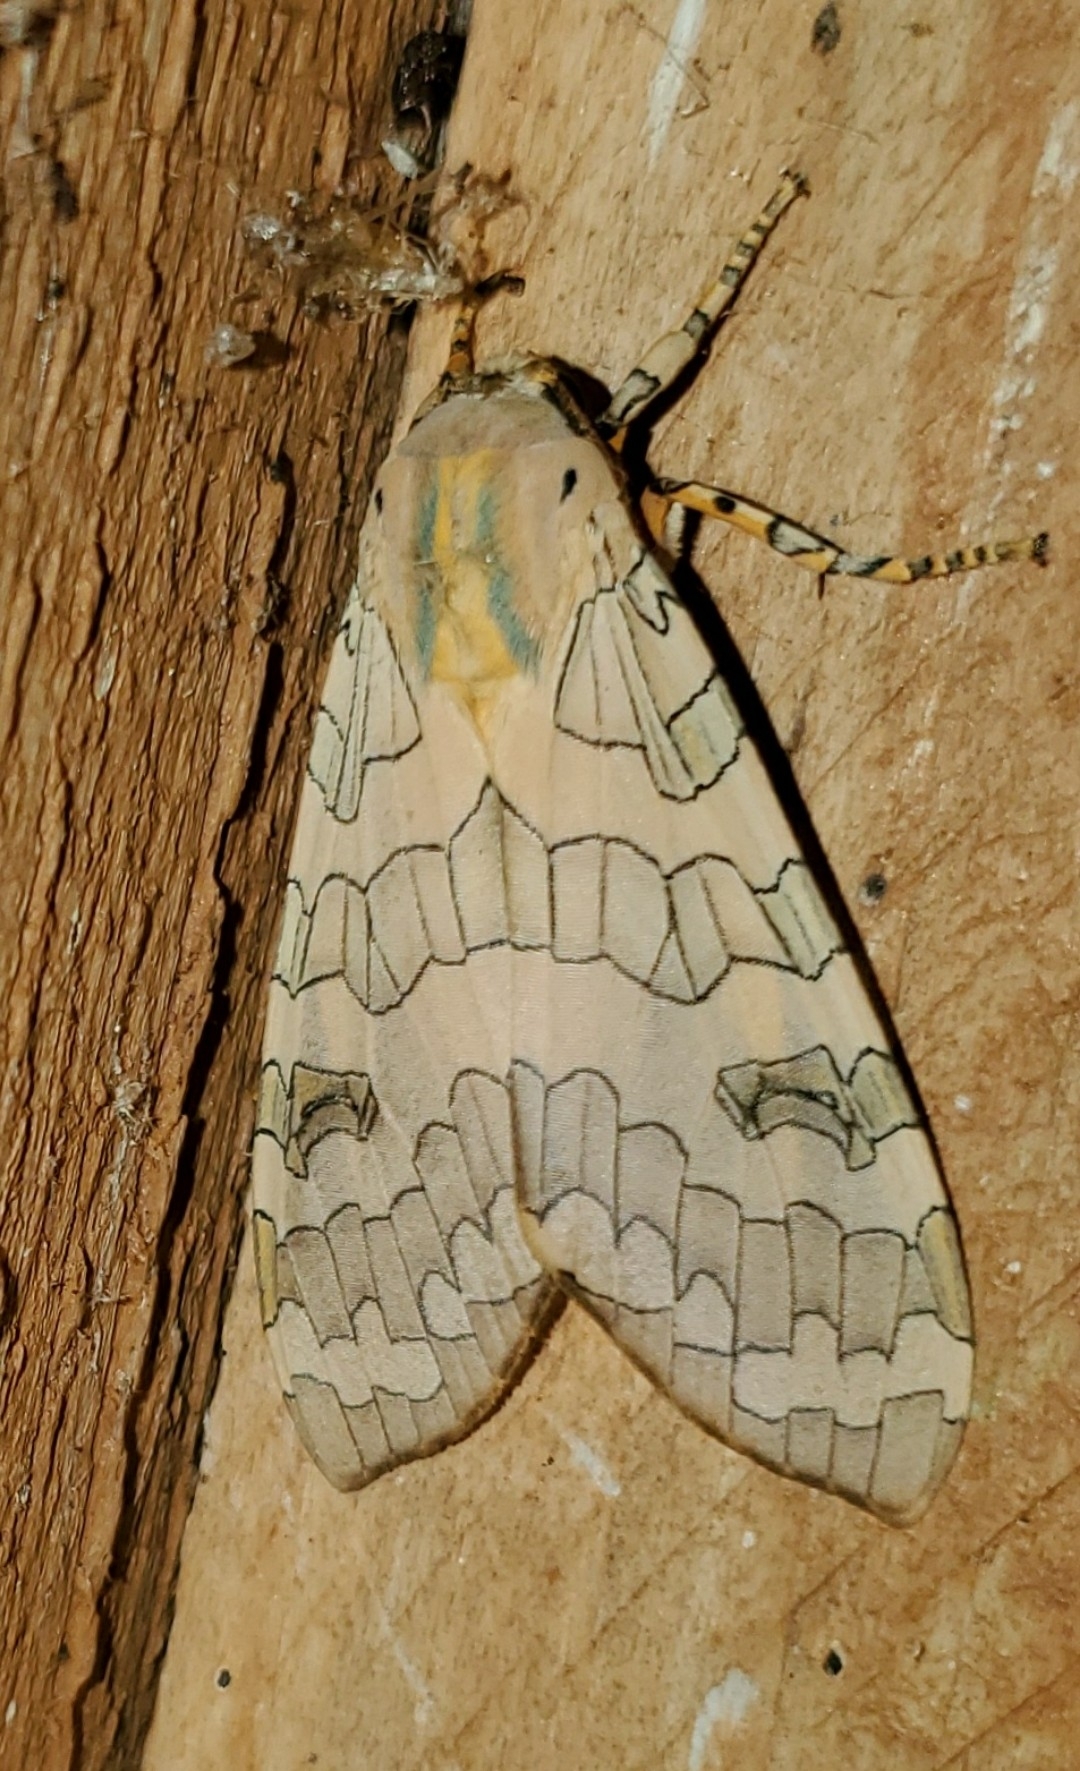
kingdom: Animalia
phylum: Arthropoda
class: Insecta
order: Lepidoptera
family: Erebidae
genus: Halysidota
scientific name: Halysidota tessellaris
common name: Banded tussock moth
